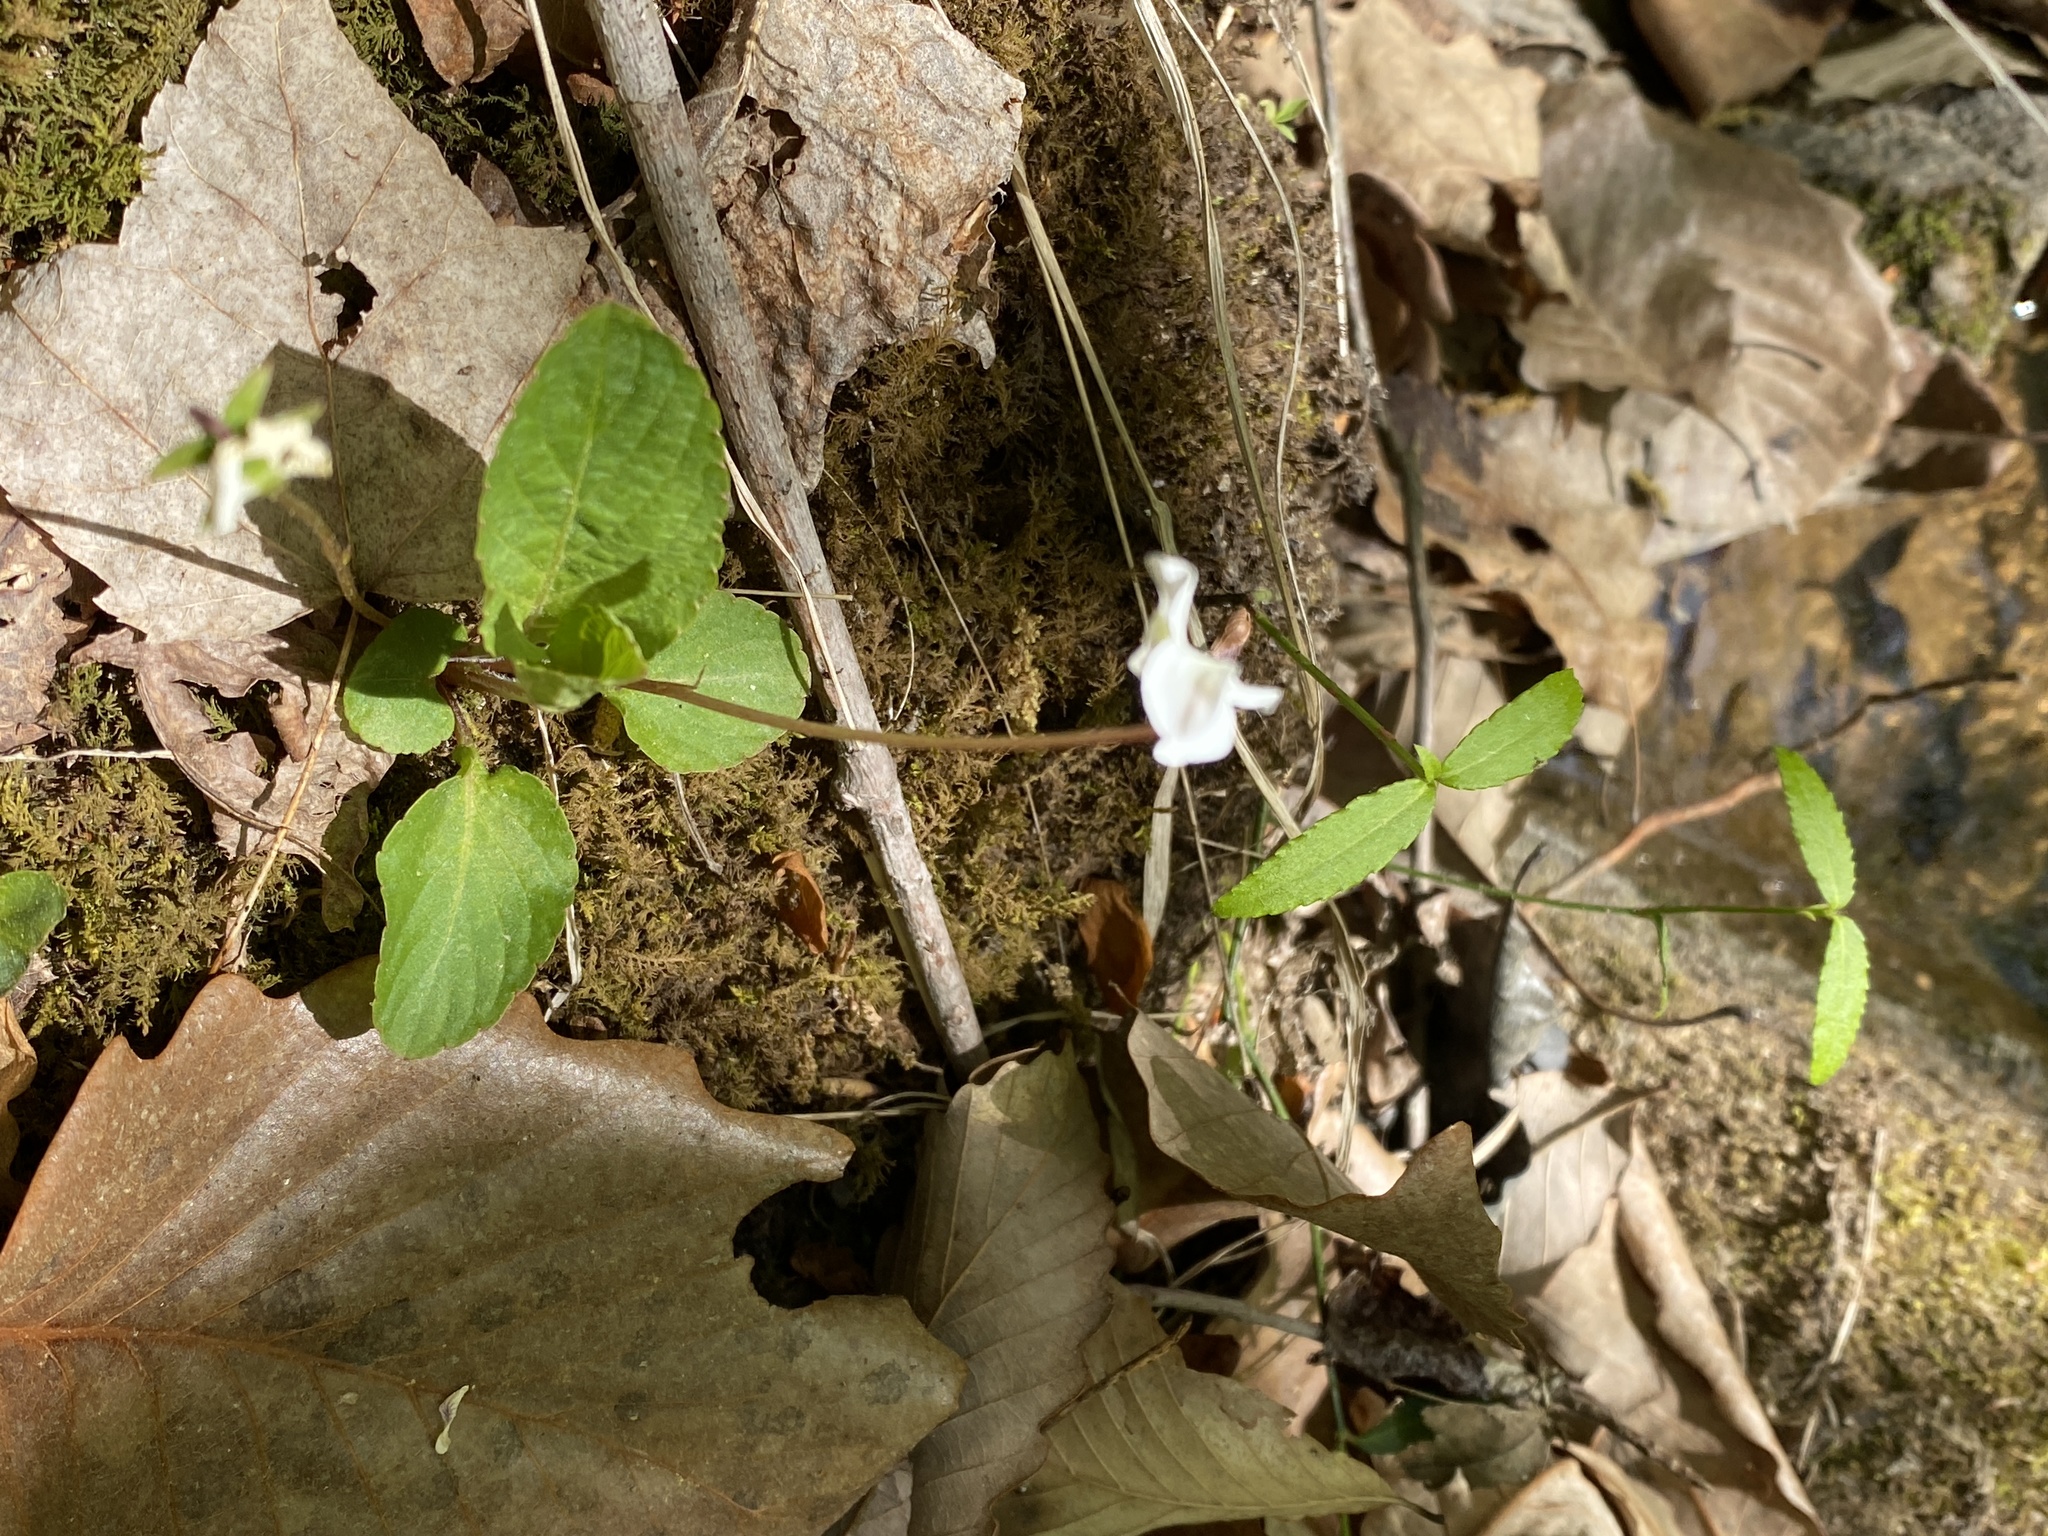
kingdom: Plantae
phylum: Tracheophyta
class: Magnoliopsida
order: Malpighiales
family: Violaceae
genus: Viola
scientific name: Viola primulifolia
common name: Primrose-leaf violet
